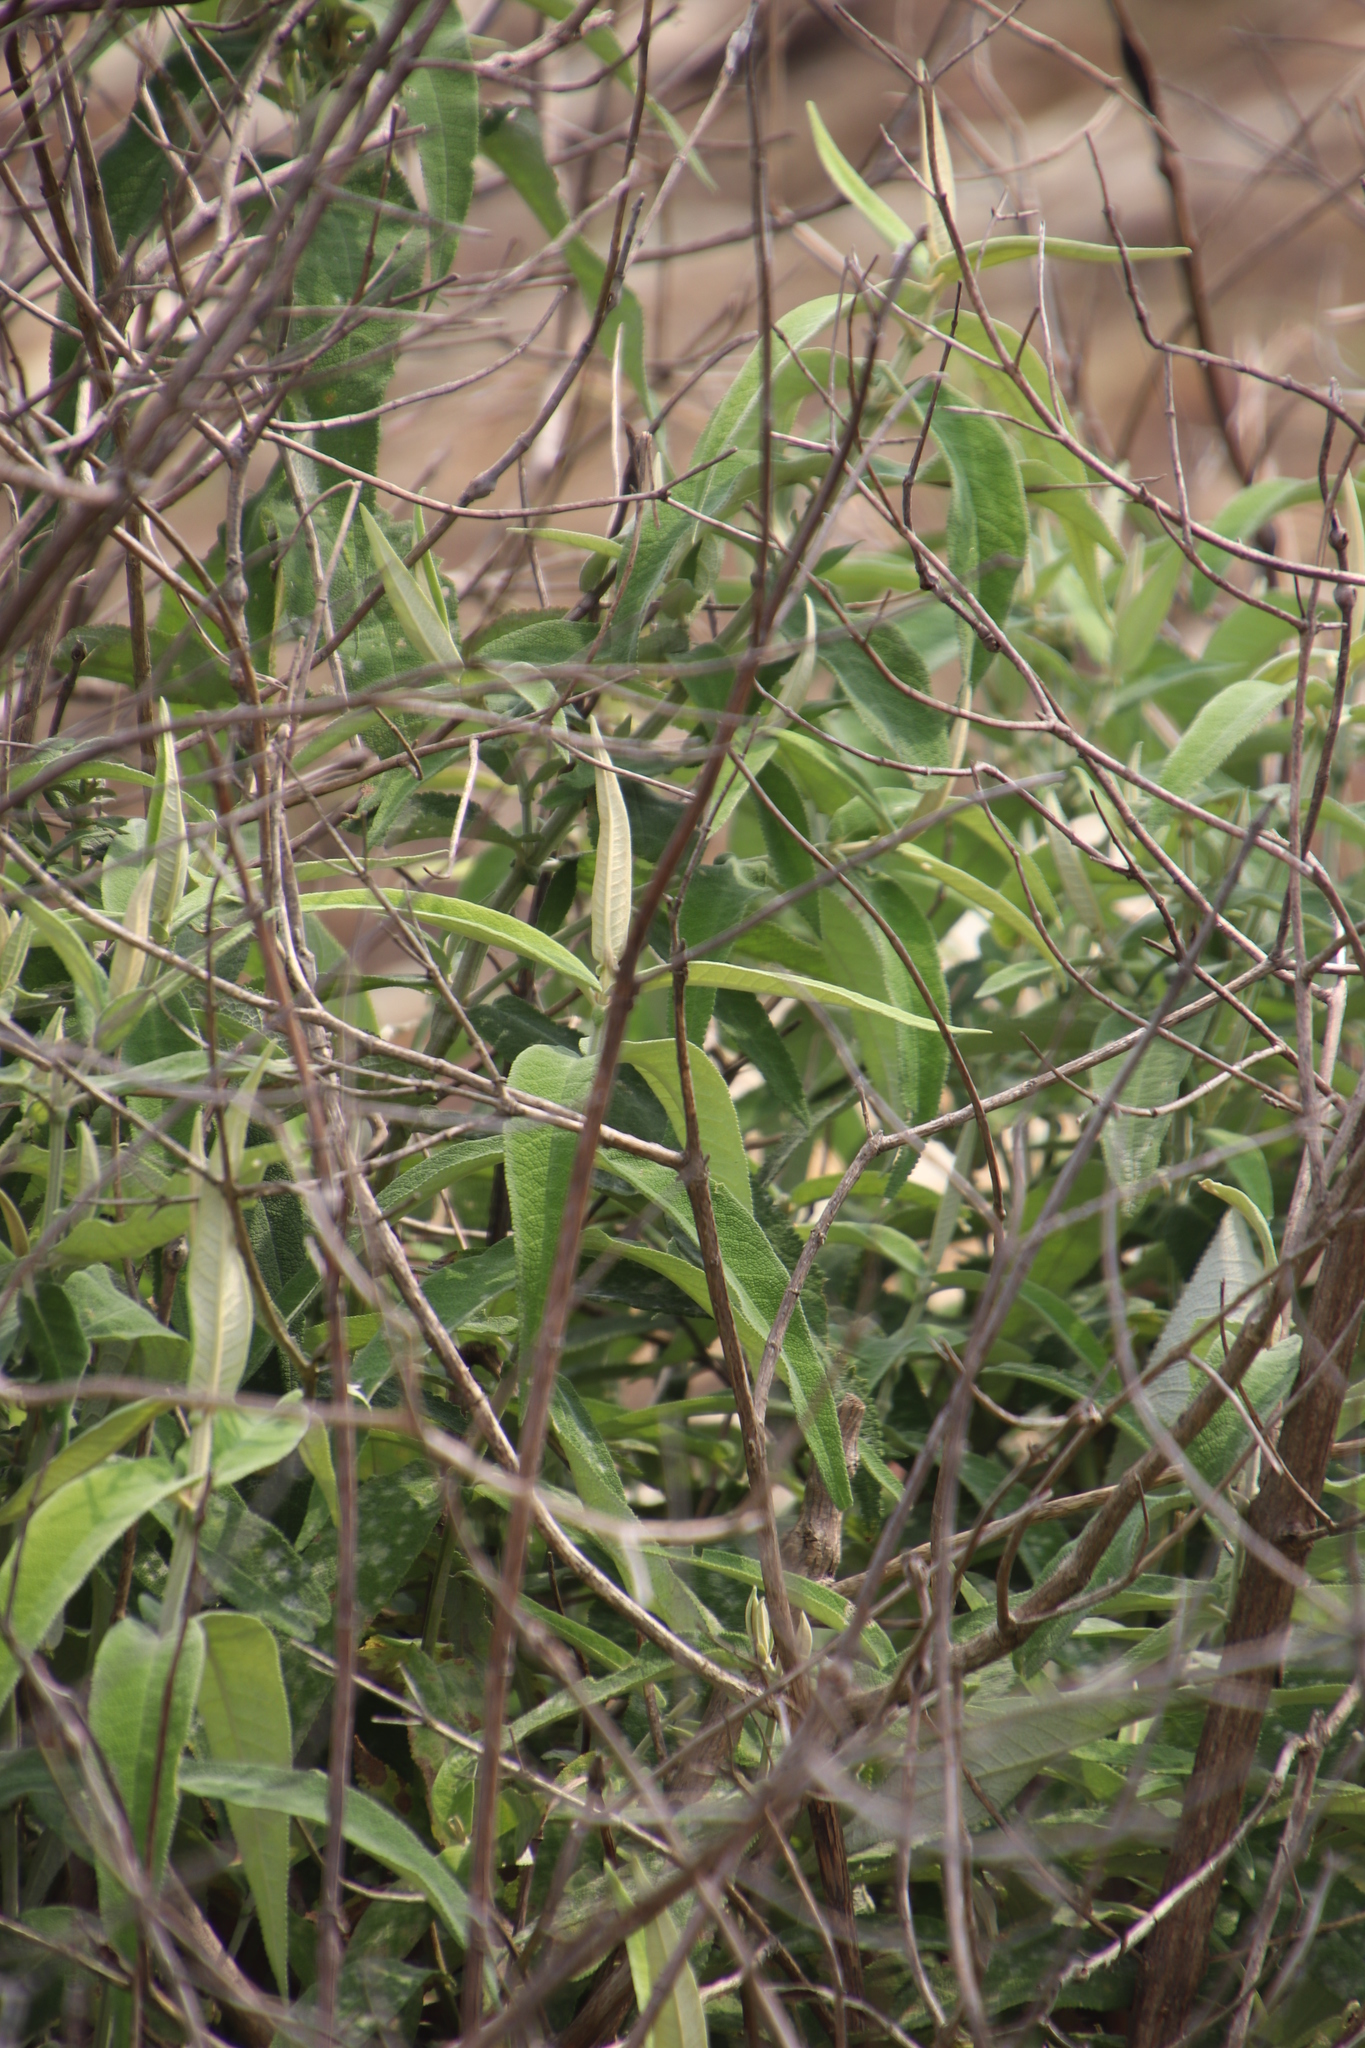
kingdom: Plantae
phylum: Tracheophyta
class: Magnoliopsida
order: Lamiales
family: Scrophulariaceae
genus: Buddleja
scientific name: Buddleja salviifolia
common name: Sagewood
